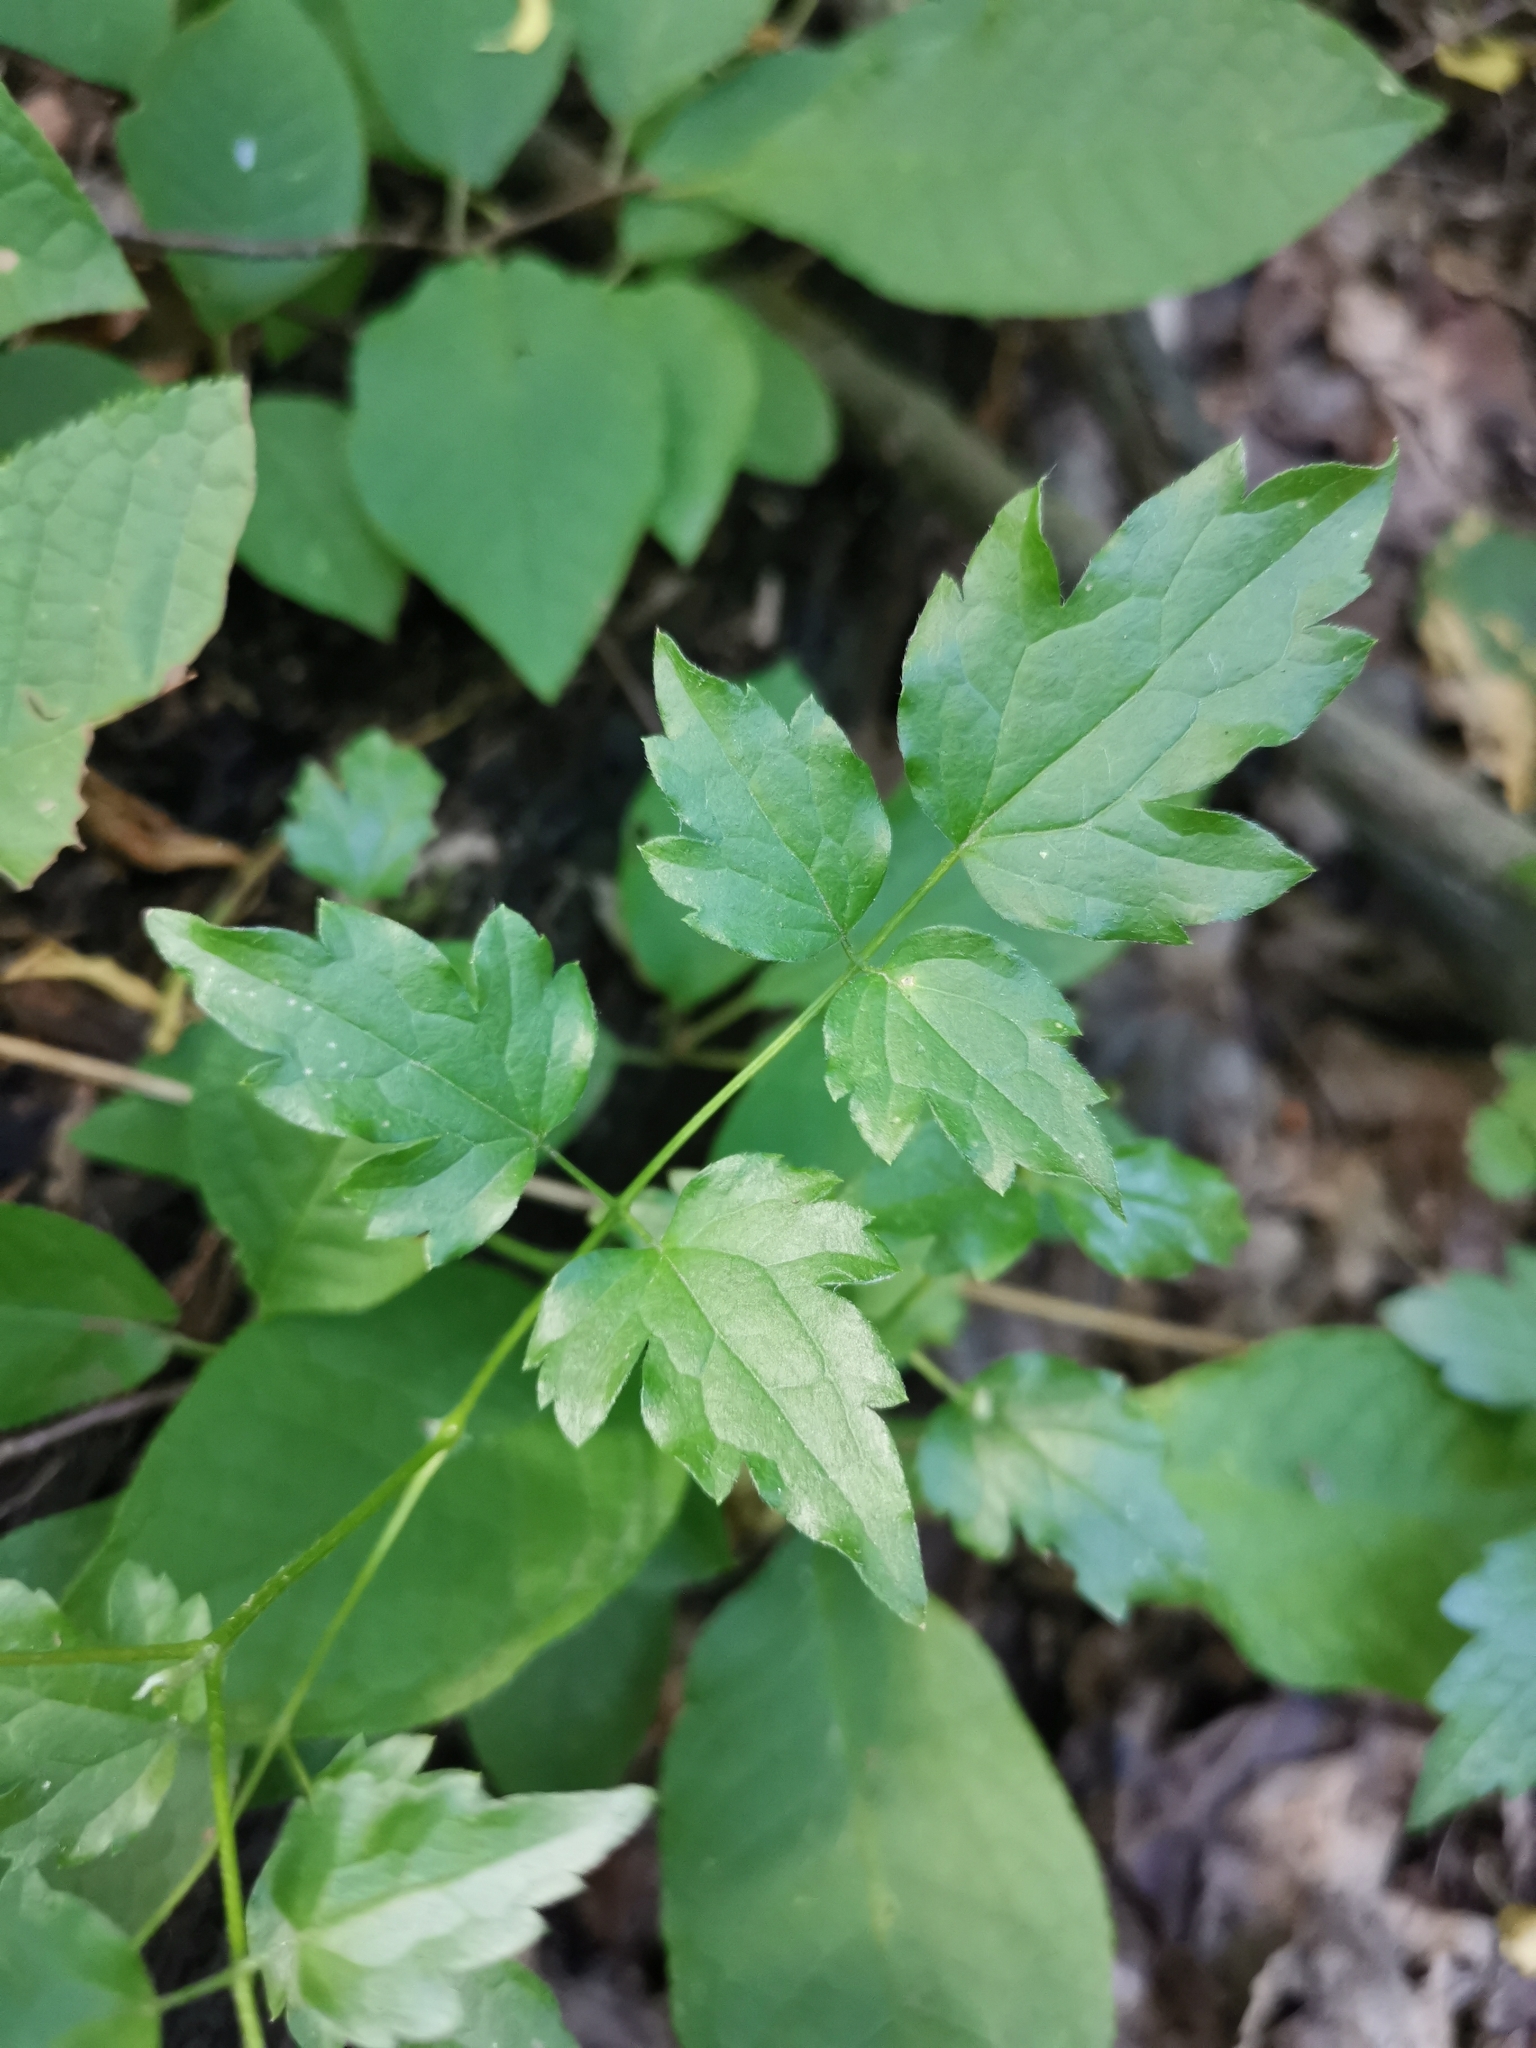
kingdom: Plantae
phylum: Tracheophyta
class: Magnoliopsida
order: Ranunculales
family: Ranunculaceae
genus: Clematis
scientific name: Clematis vitalba
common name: Evergreen clematis
